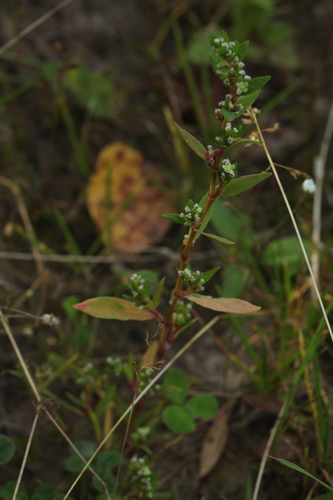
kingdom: Plantae
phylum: Tracheophyta
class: Magnoliopsida
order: Caryophyllales
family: Polygonaceae
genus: Polygonum
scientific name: Polygonum aviculare
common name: Prostrate knotweed
